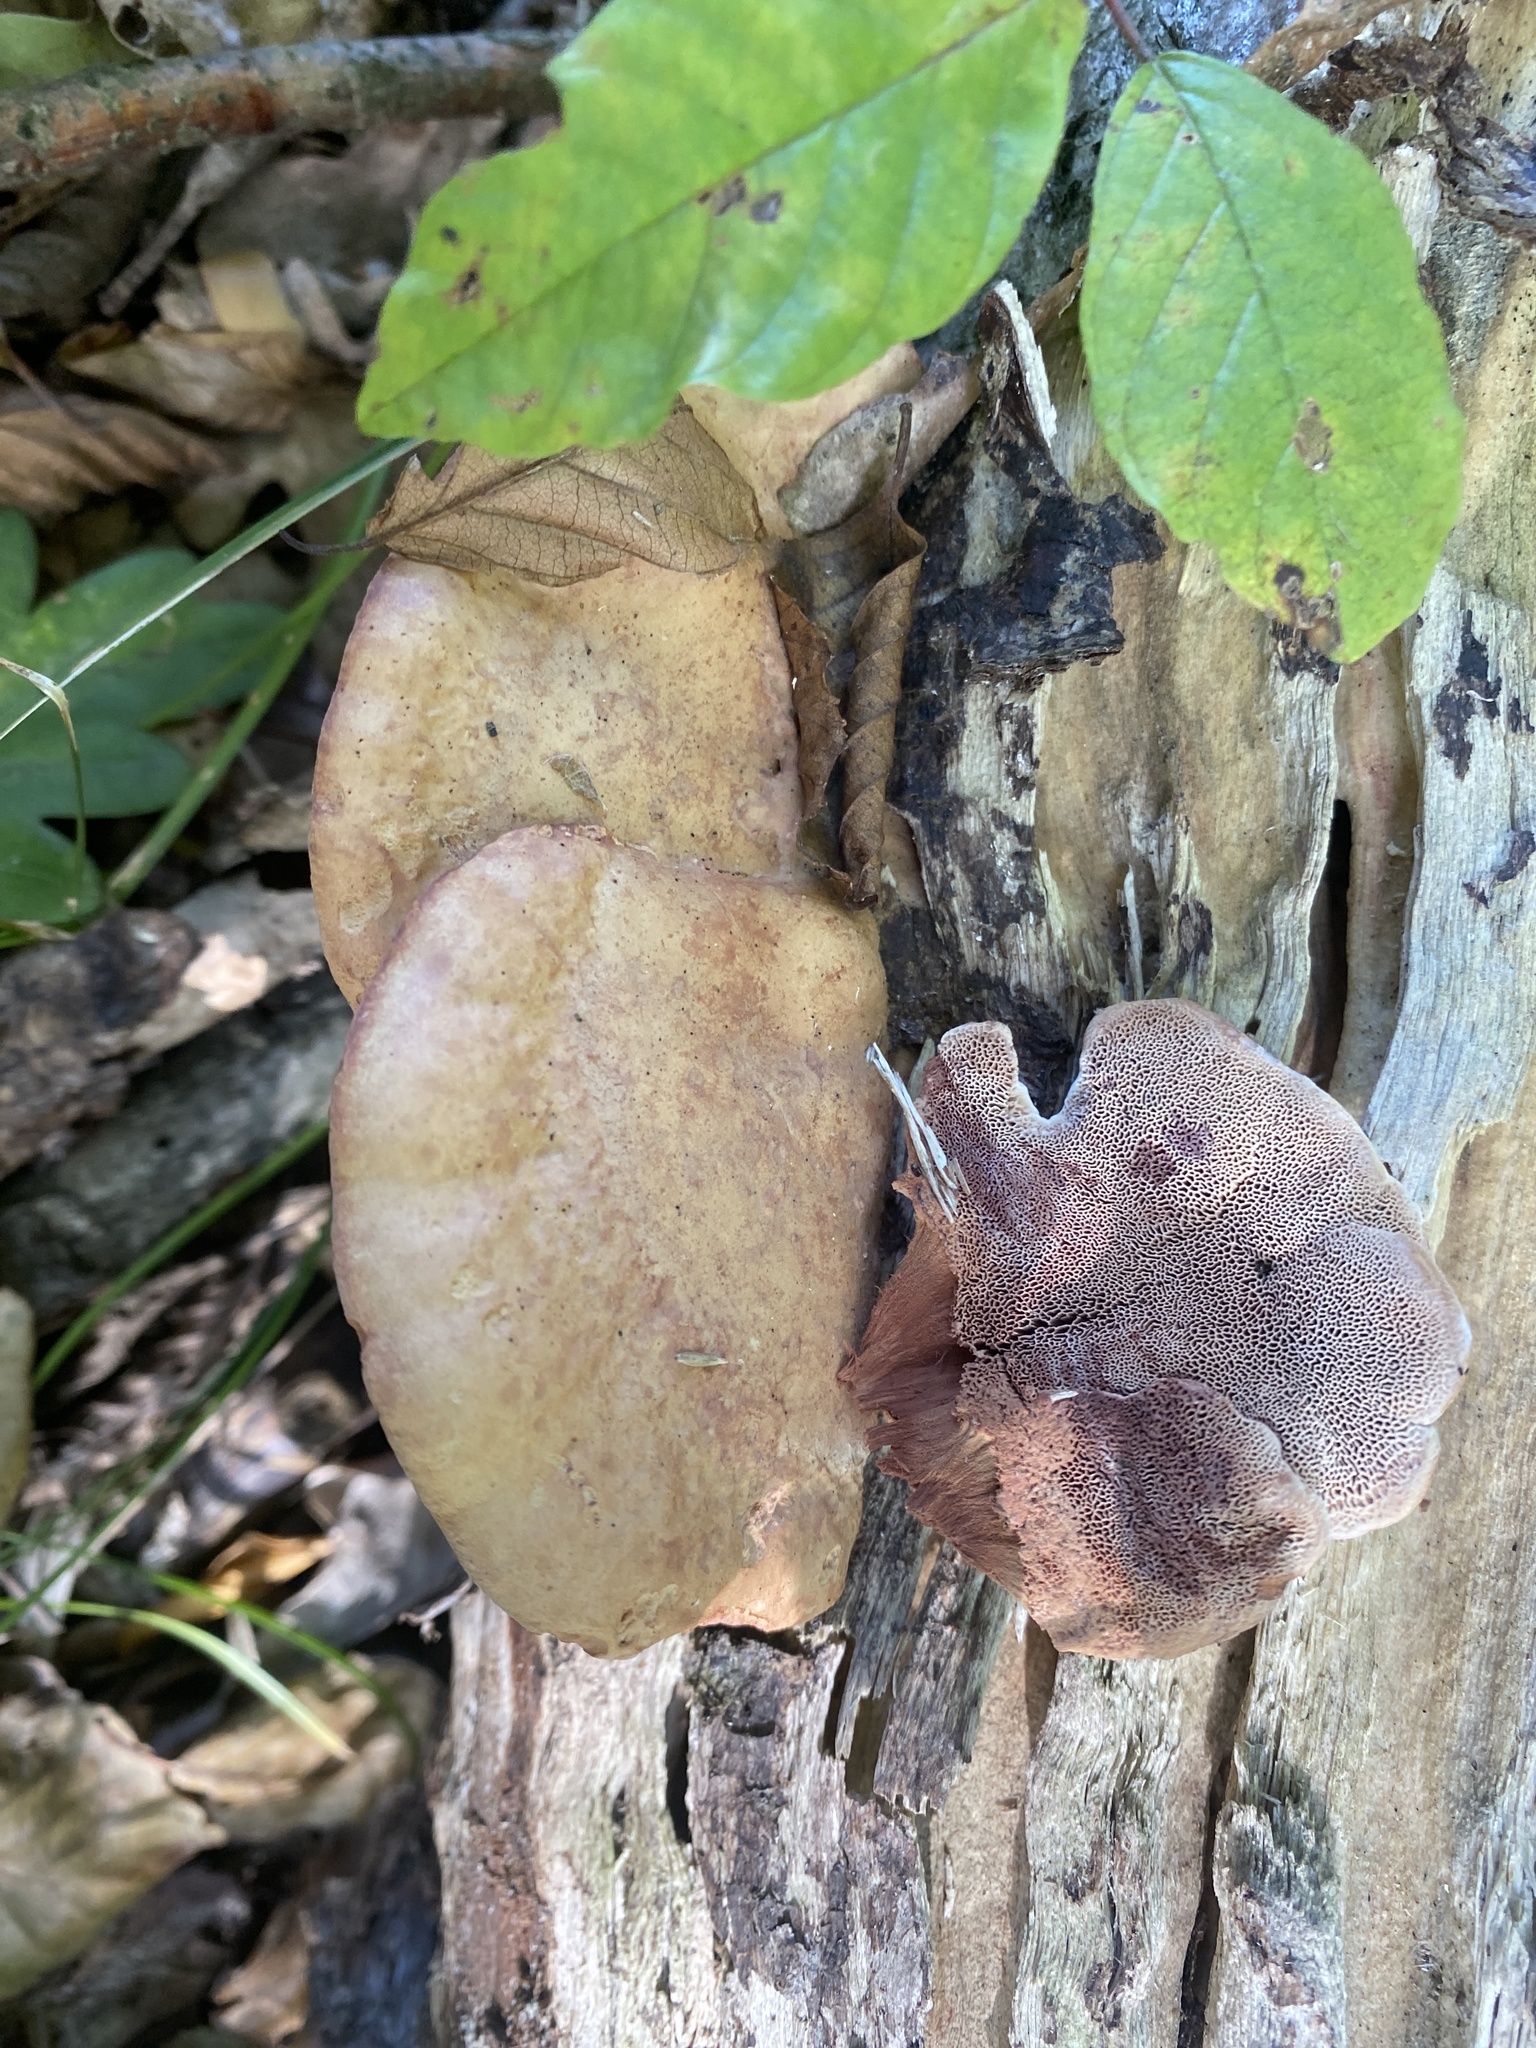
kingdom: Fungi
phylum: Basidiomycota
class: Agaricomycetes
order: Polyporales
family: Phanerochaetaceae
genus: Hapalopilus
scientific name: Hapalopilus rutilans
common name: Tender nesting polypore
